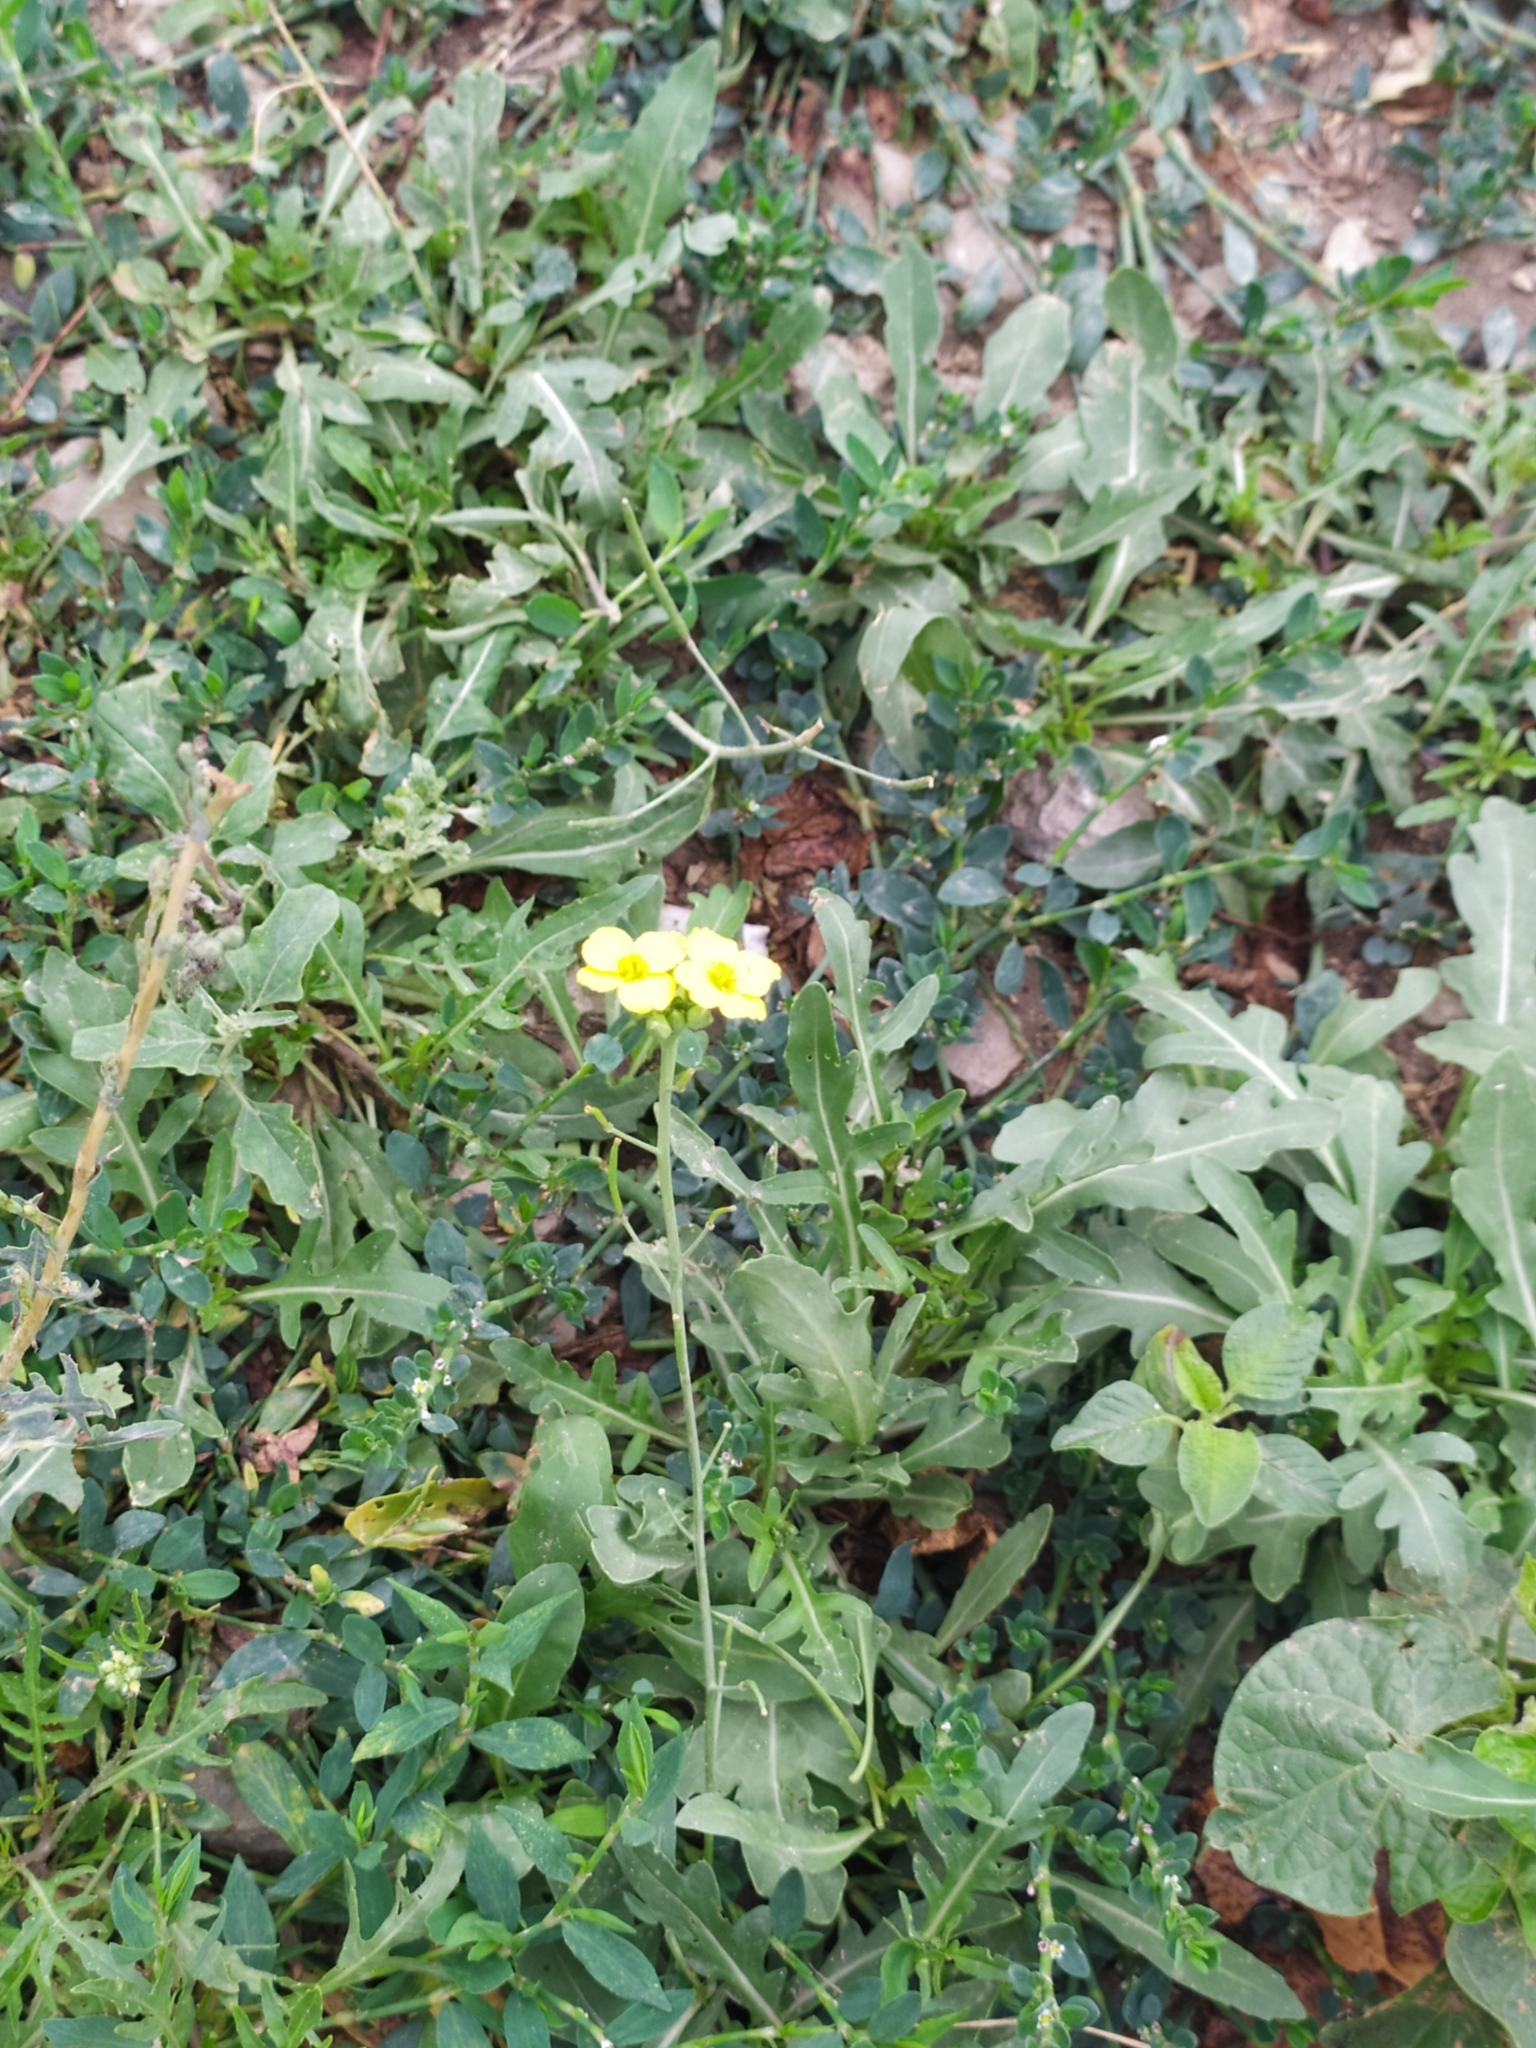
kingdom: Plantae
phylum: Tracheophyta
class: Magnoliopsida
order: Brassicales
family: Brassicaceae
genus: Diplotaxis
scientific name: Diplotaxis tenuifolia
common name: Perennial wall-rocket
